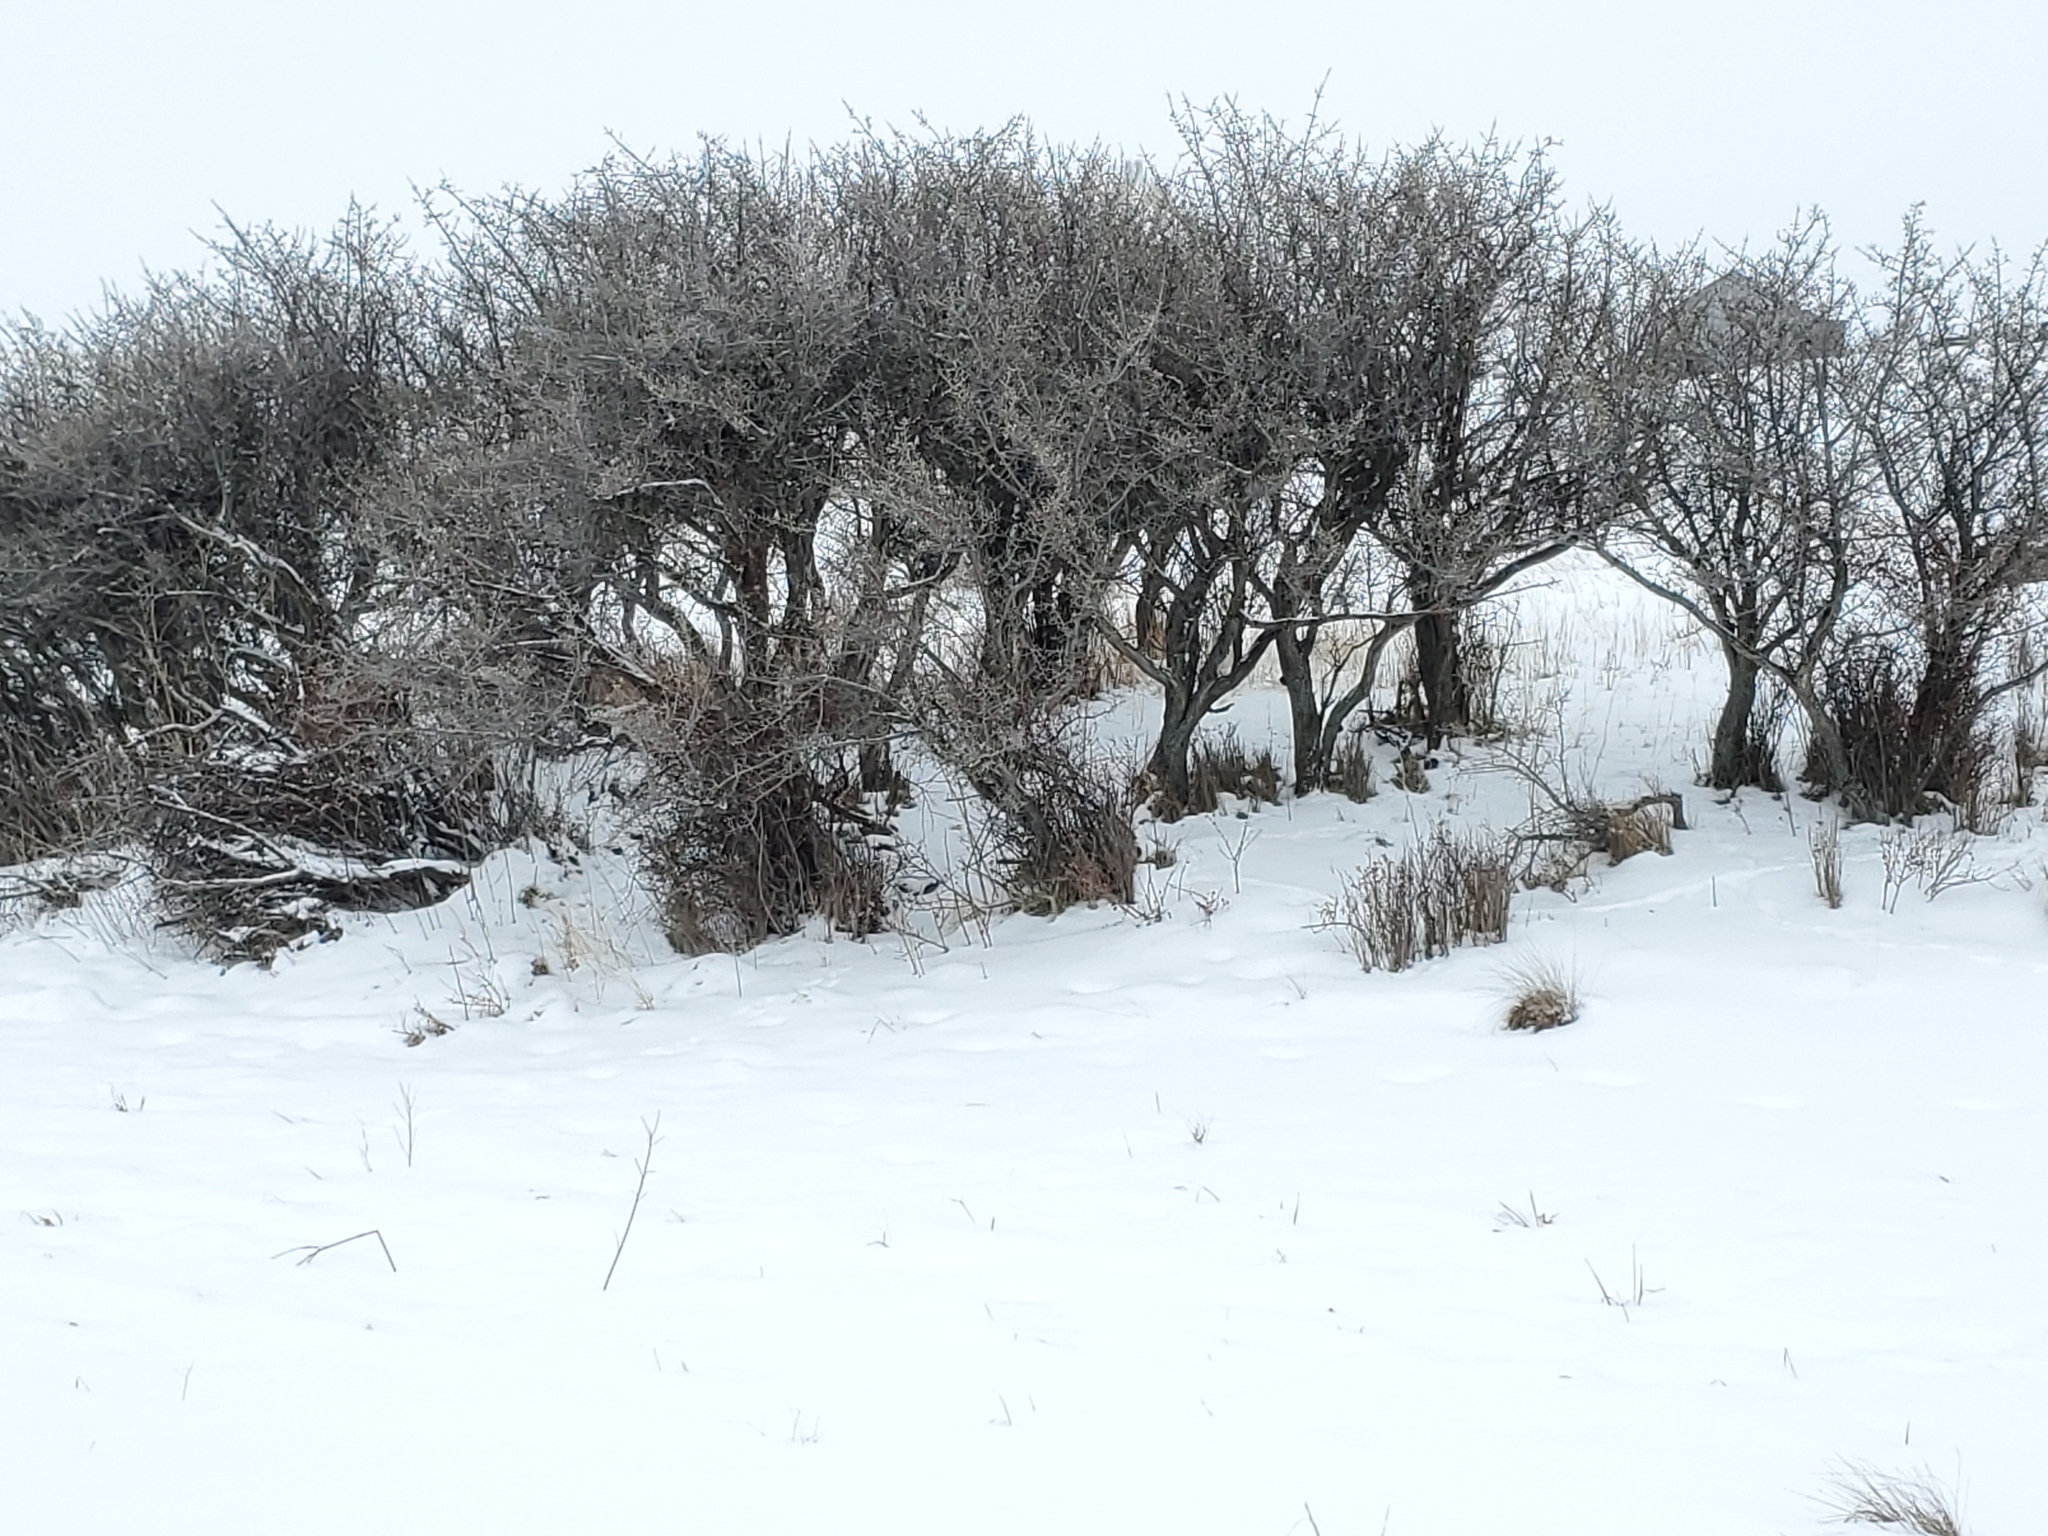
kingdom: Plantae
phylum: Tracheophyta
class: Magnoliopsida
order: Rosales
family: Elaeagnaceae
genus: Shepherdia
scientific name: Shepherdia argentea
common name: Silver buffaloberry
